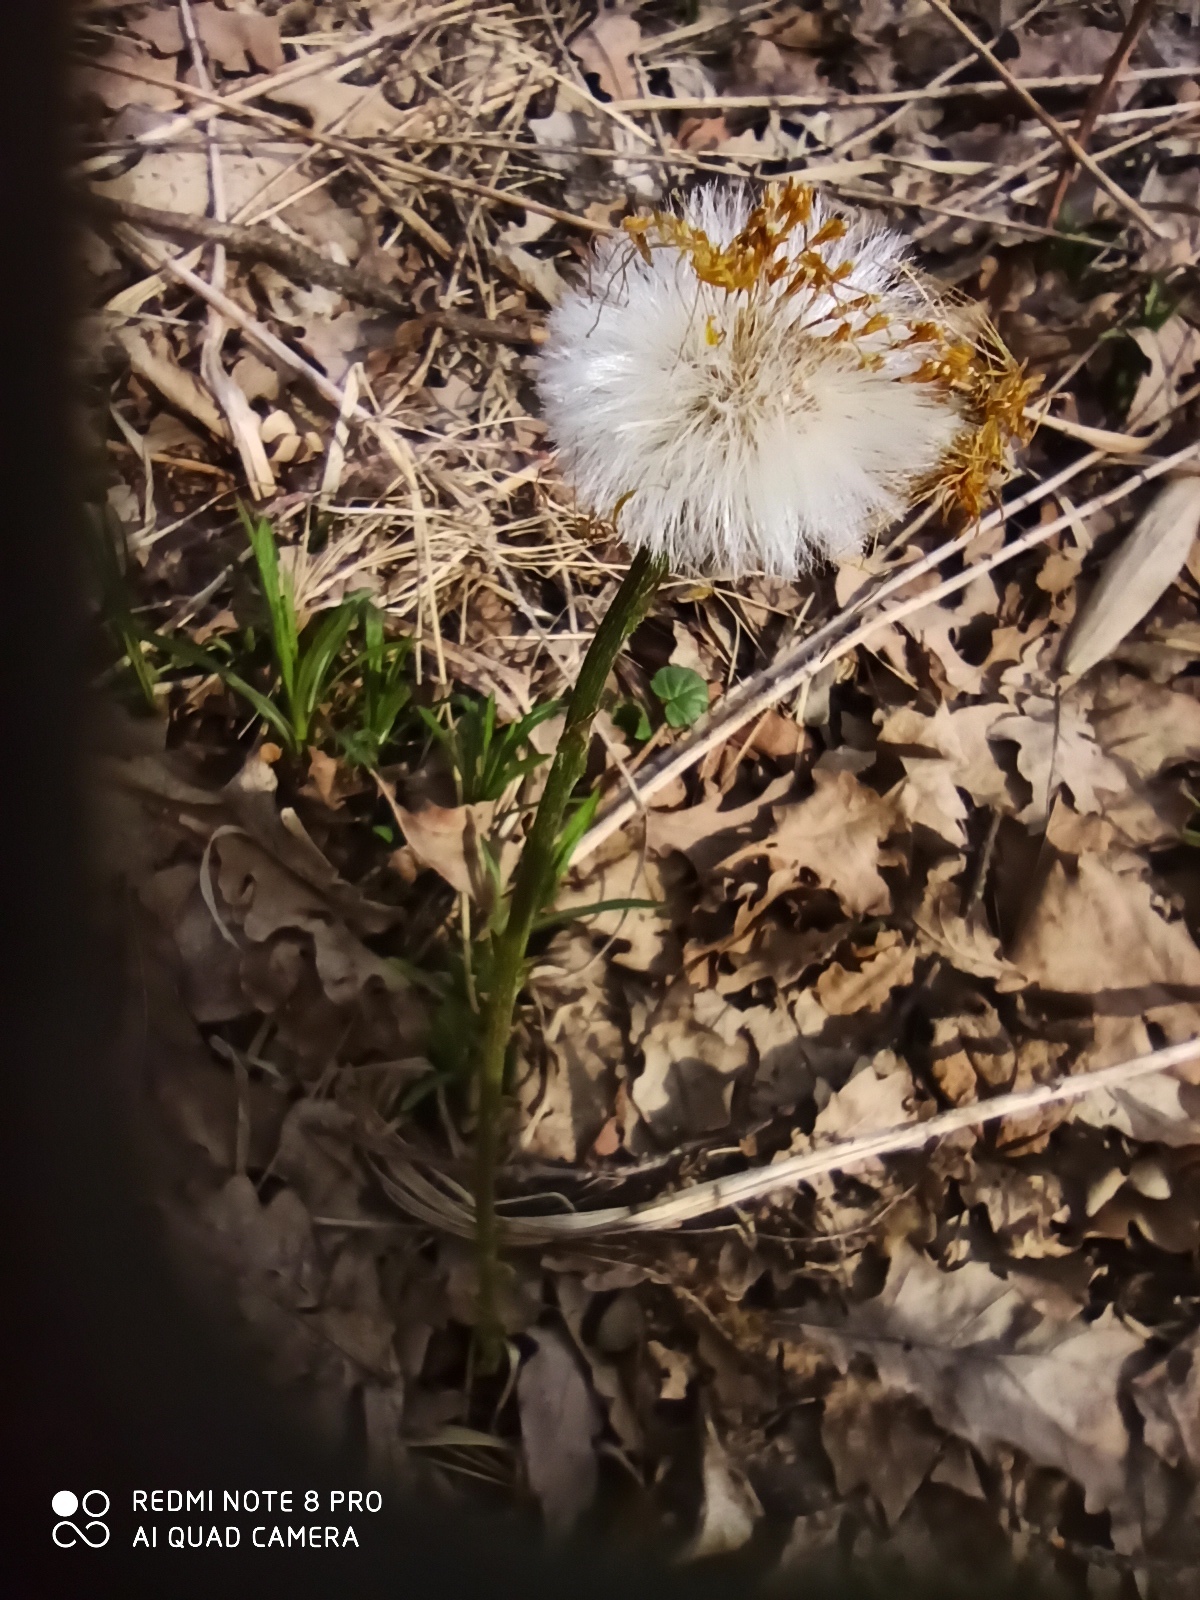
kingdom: Plantae
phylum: Tracheophyta
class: Magnoliopsida
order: Asterales
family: Asteraceae
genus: Tussilago
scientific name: Tussilago farfara
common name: Coltsfoot
